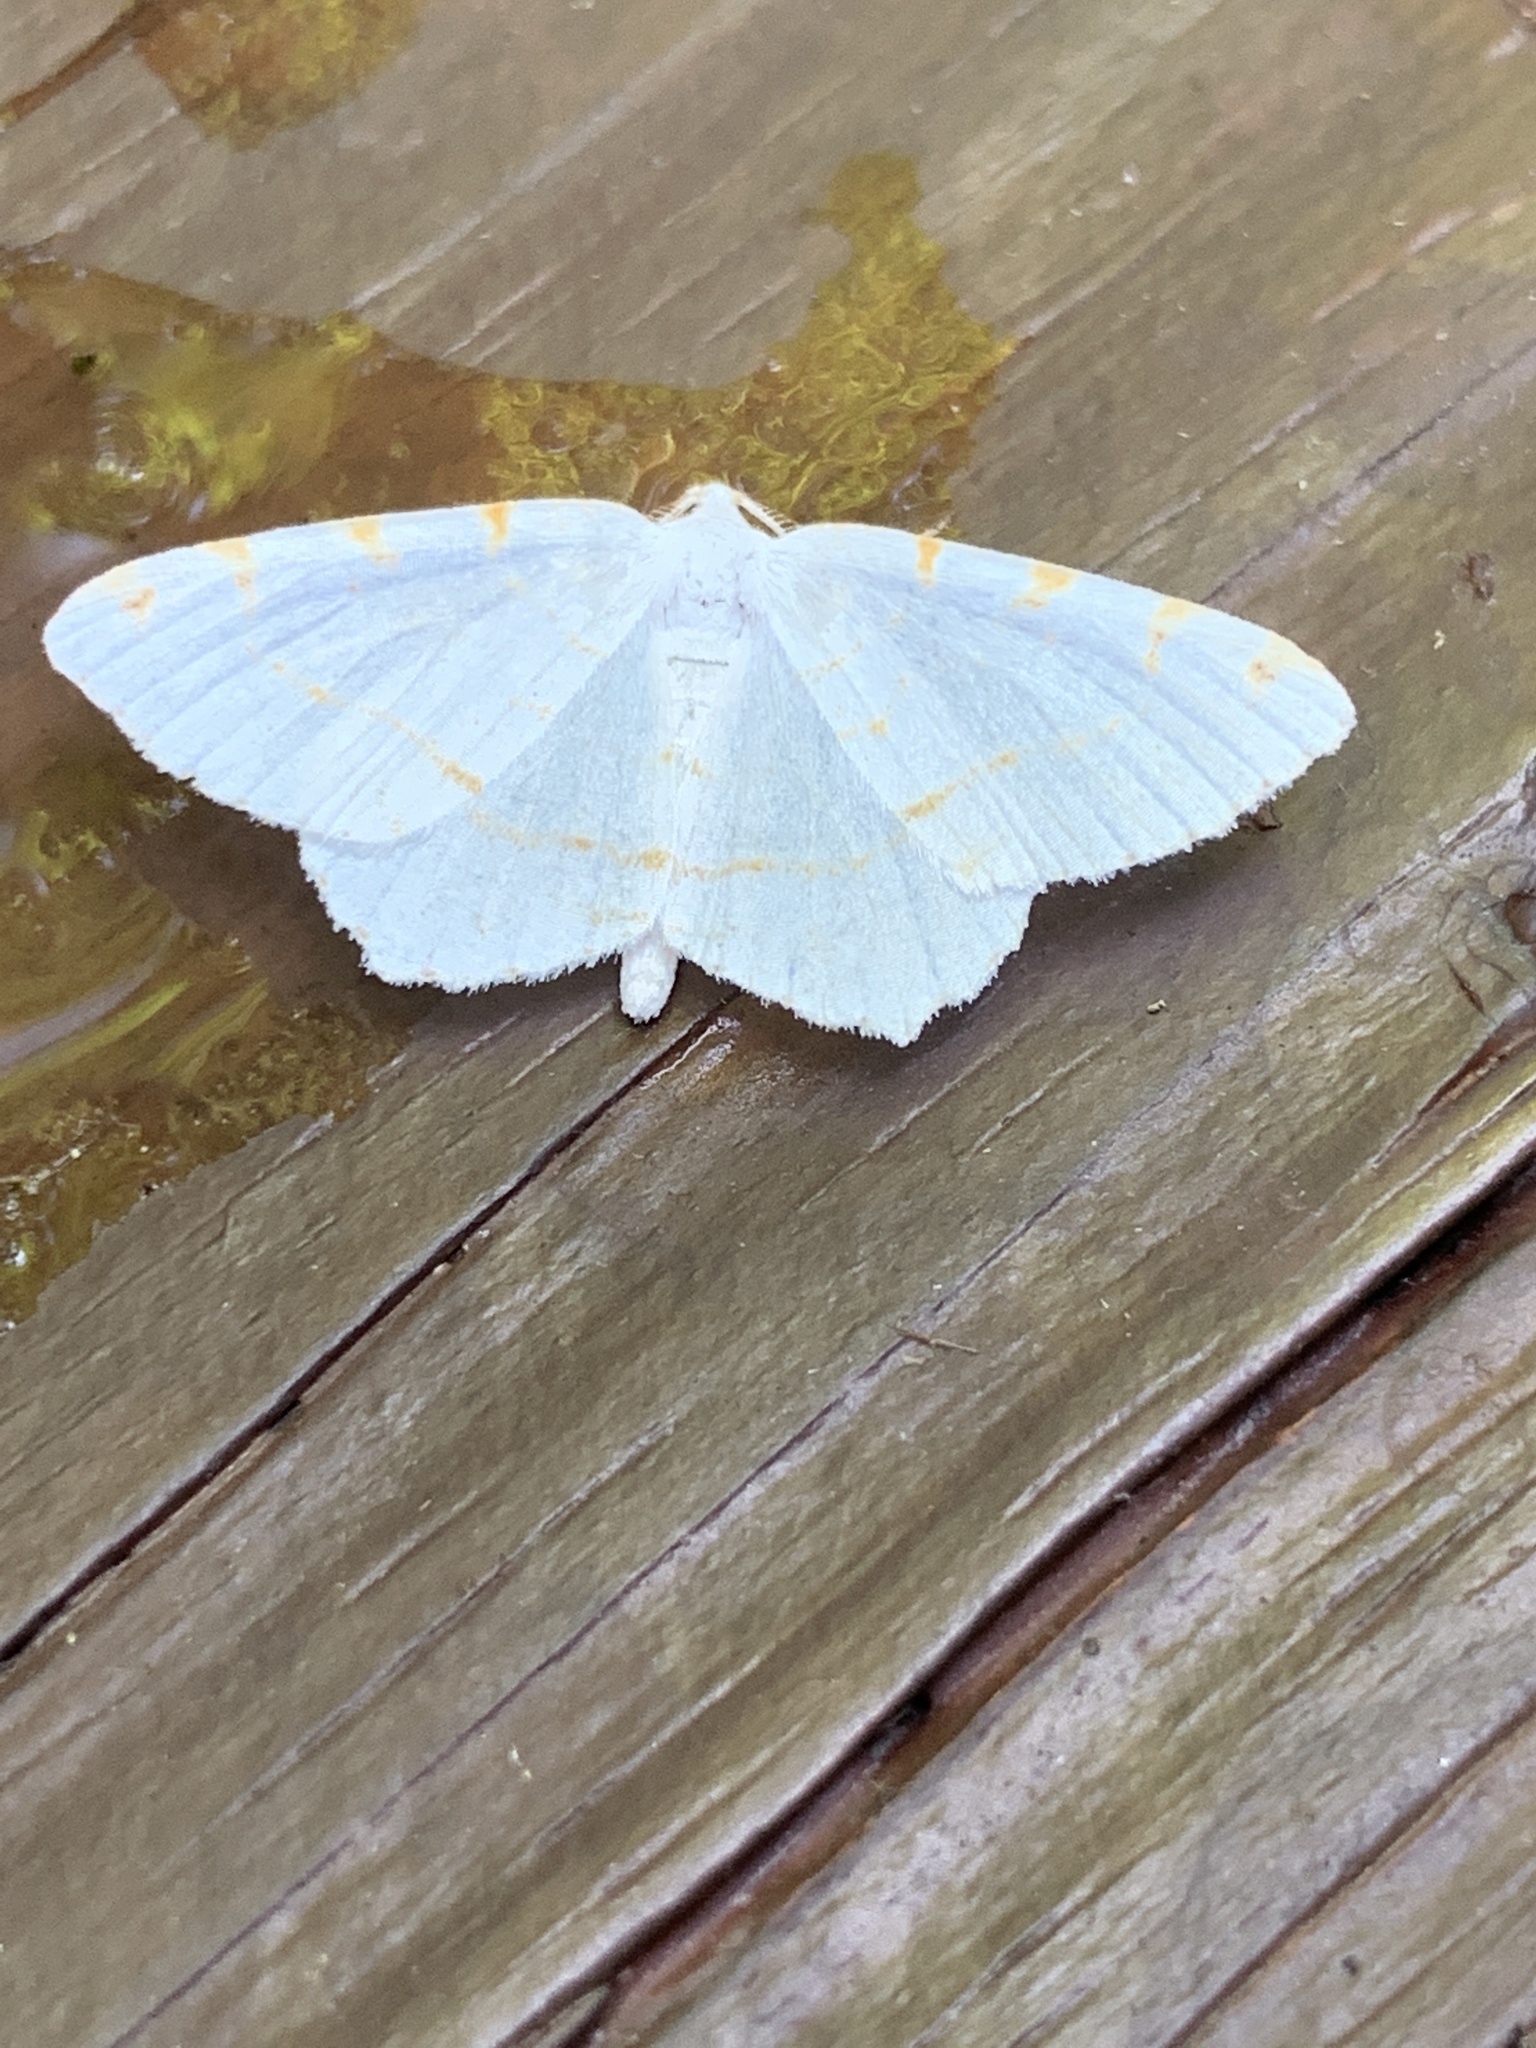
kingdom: Animalia
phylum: Arthropoda
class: Insecta
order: Lepidoptera
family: Geometridae
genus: Macaria
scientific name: Macaria pustularia
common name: Lesser maple spanworm moth
